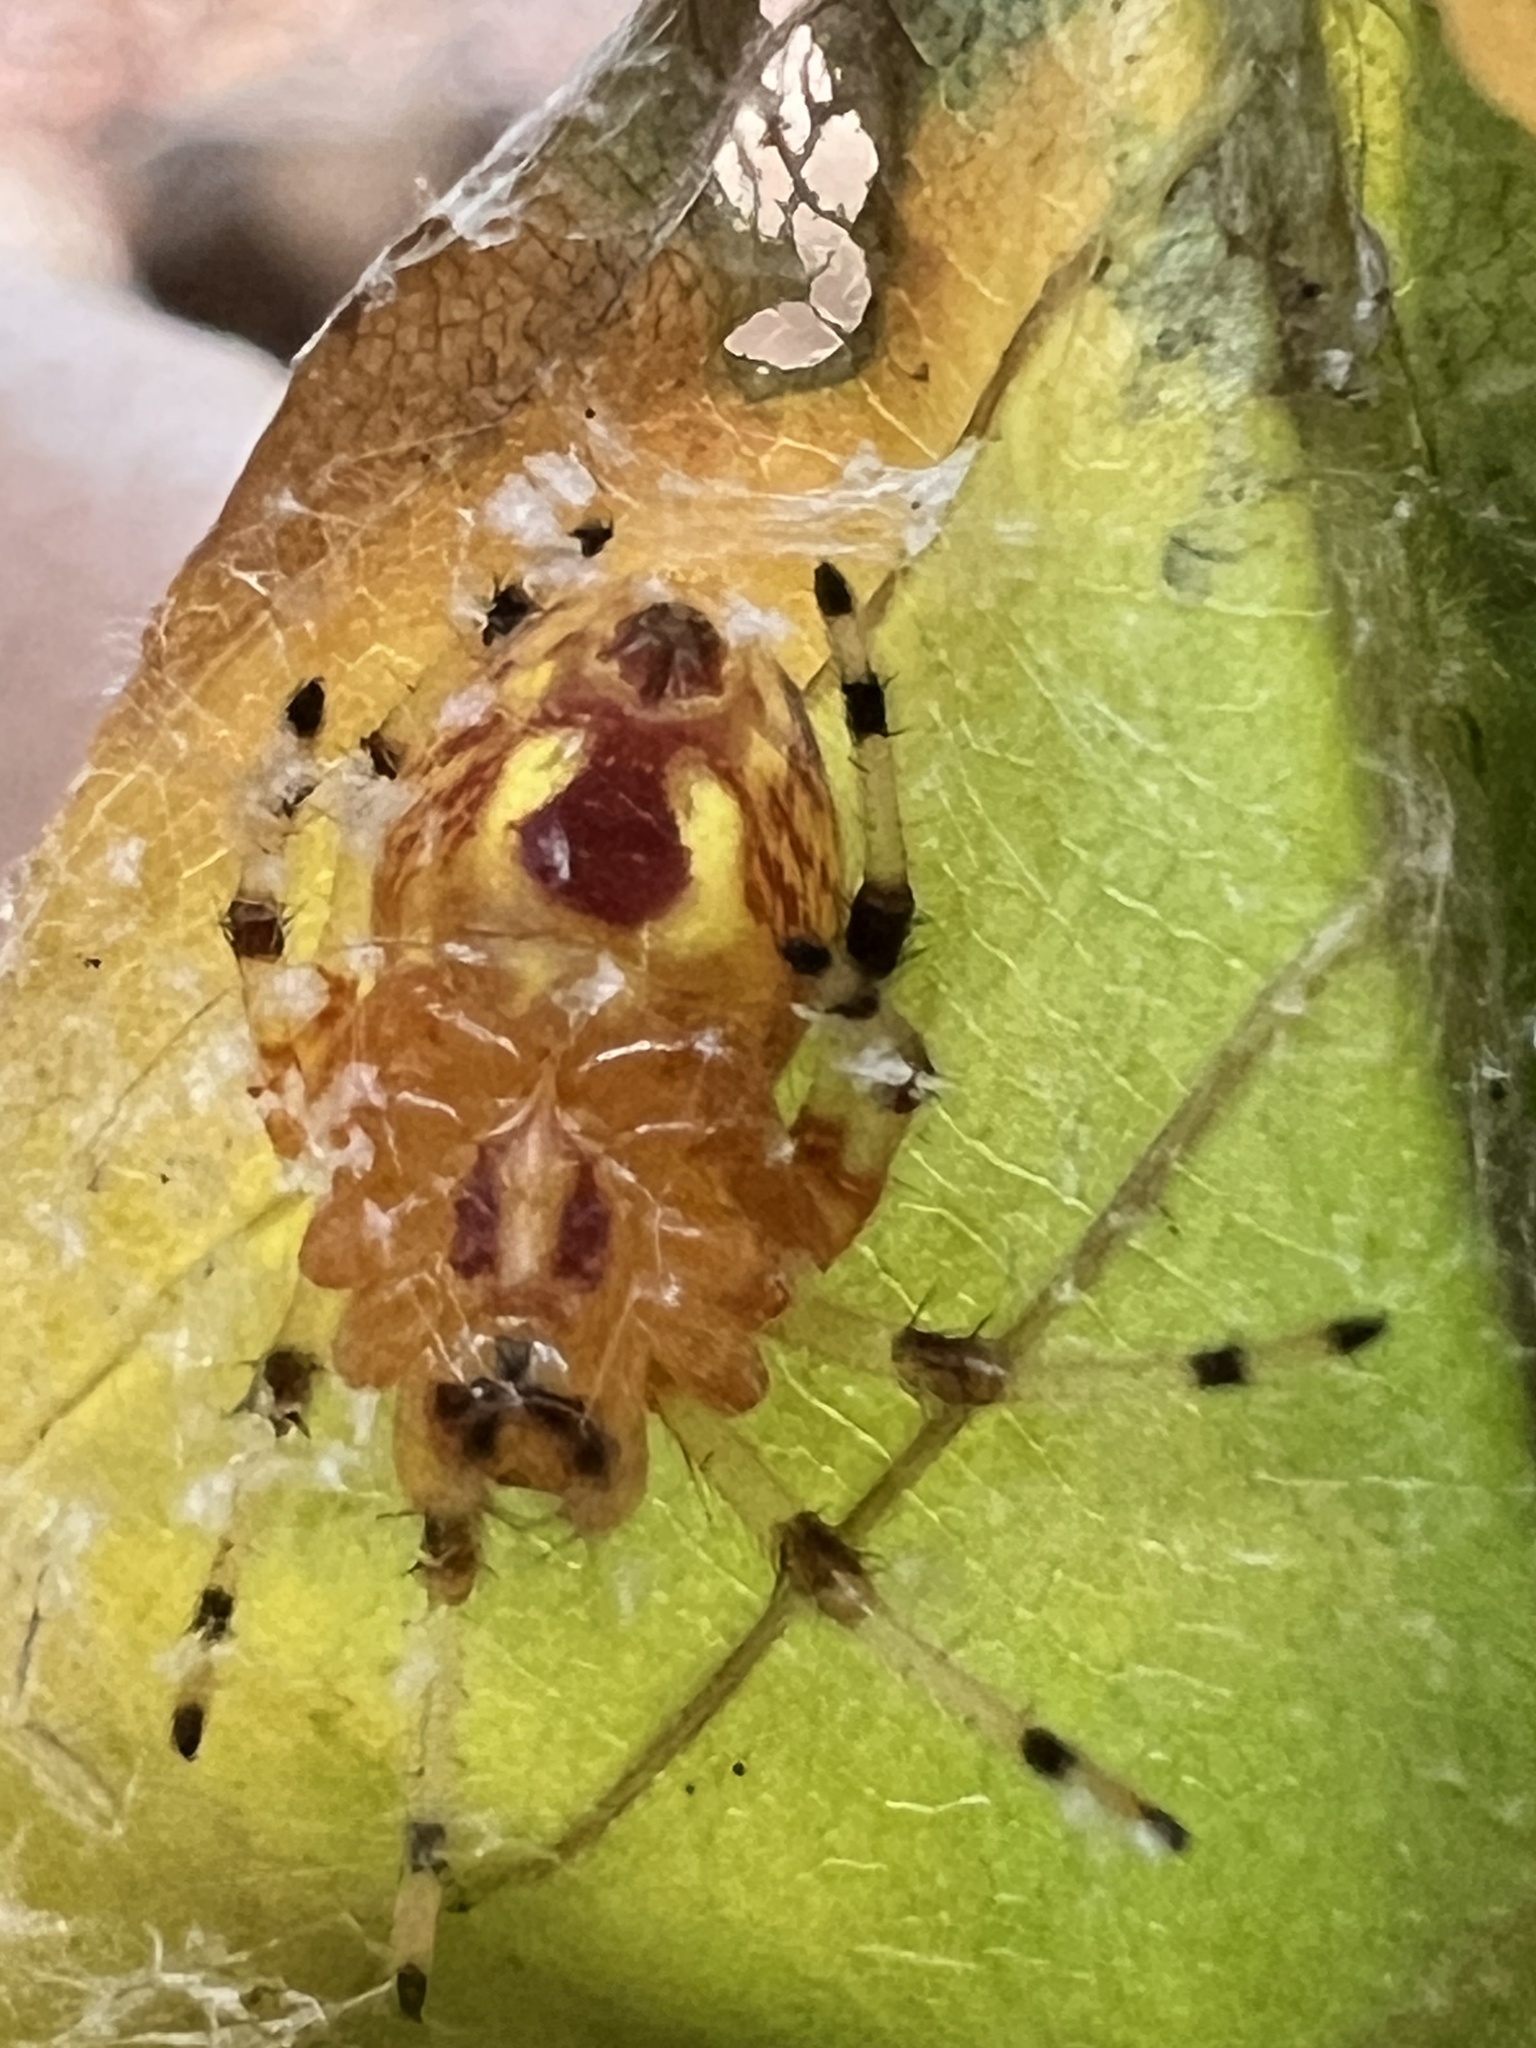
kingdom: Animalia
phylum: Arthropoda
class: Arachnida
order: Araneae
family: Araneidae
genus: Araneus
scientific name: Araneus marmoreus
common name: Marbled orbweaver
